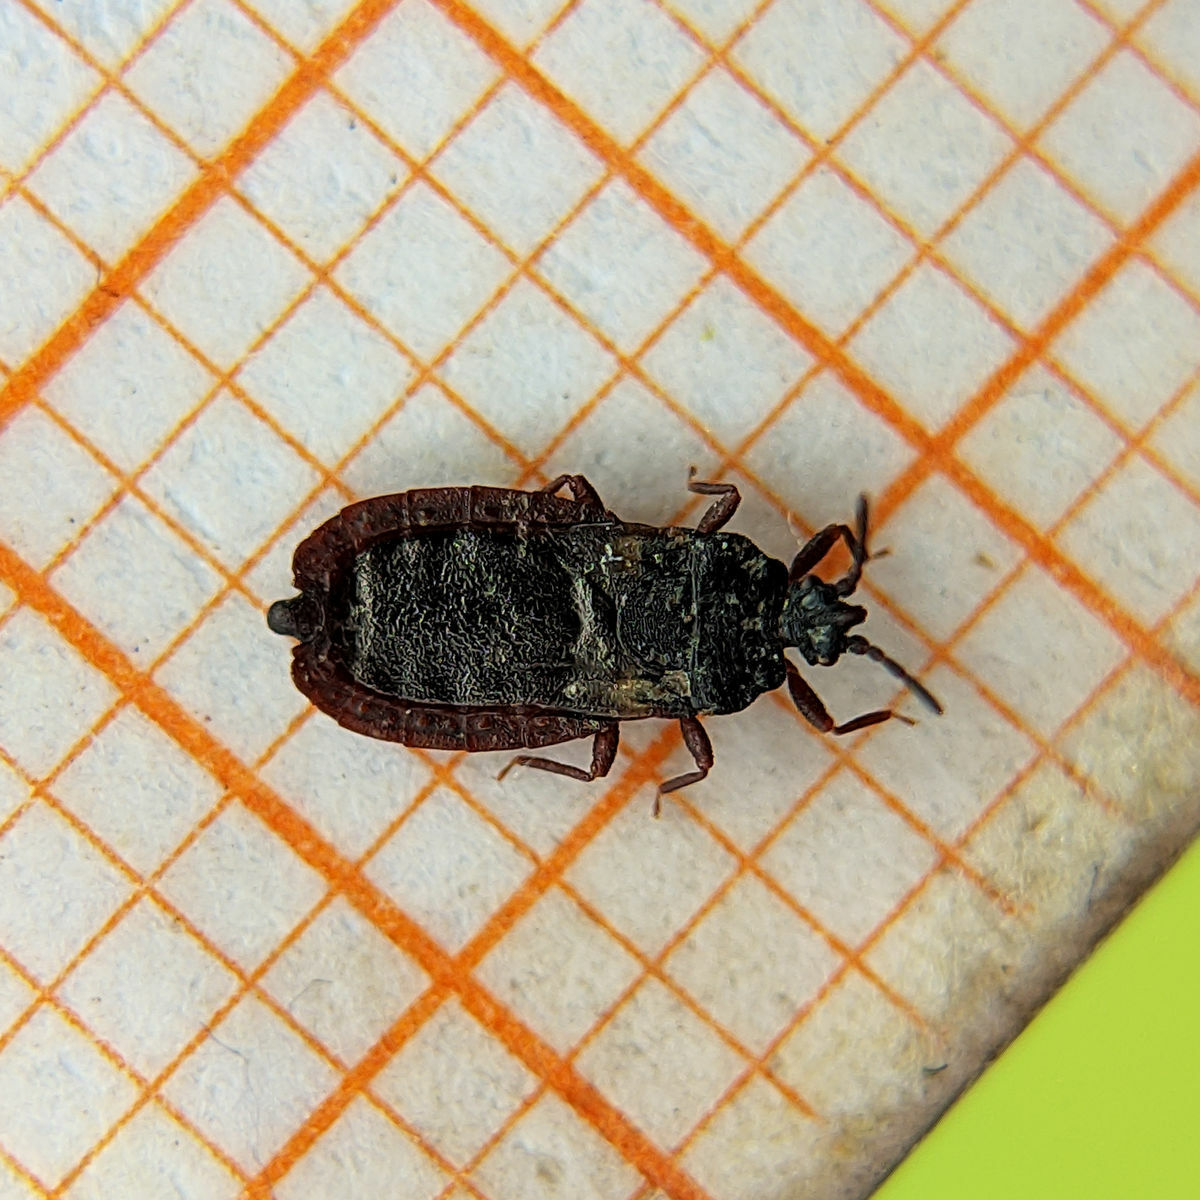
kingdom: Animalia
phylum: Arthropoda
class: Insecta
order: Hemiptera
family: Aradidae
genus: Aneurus
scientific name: Aneurus avenius
